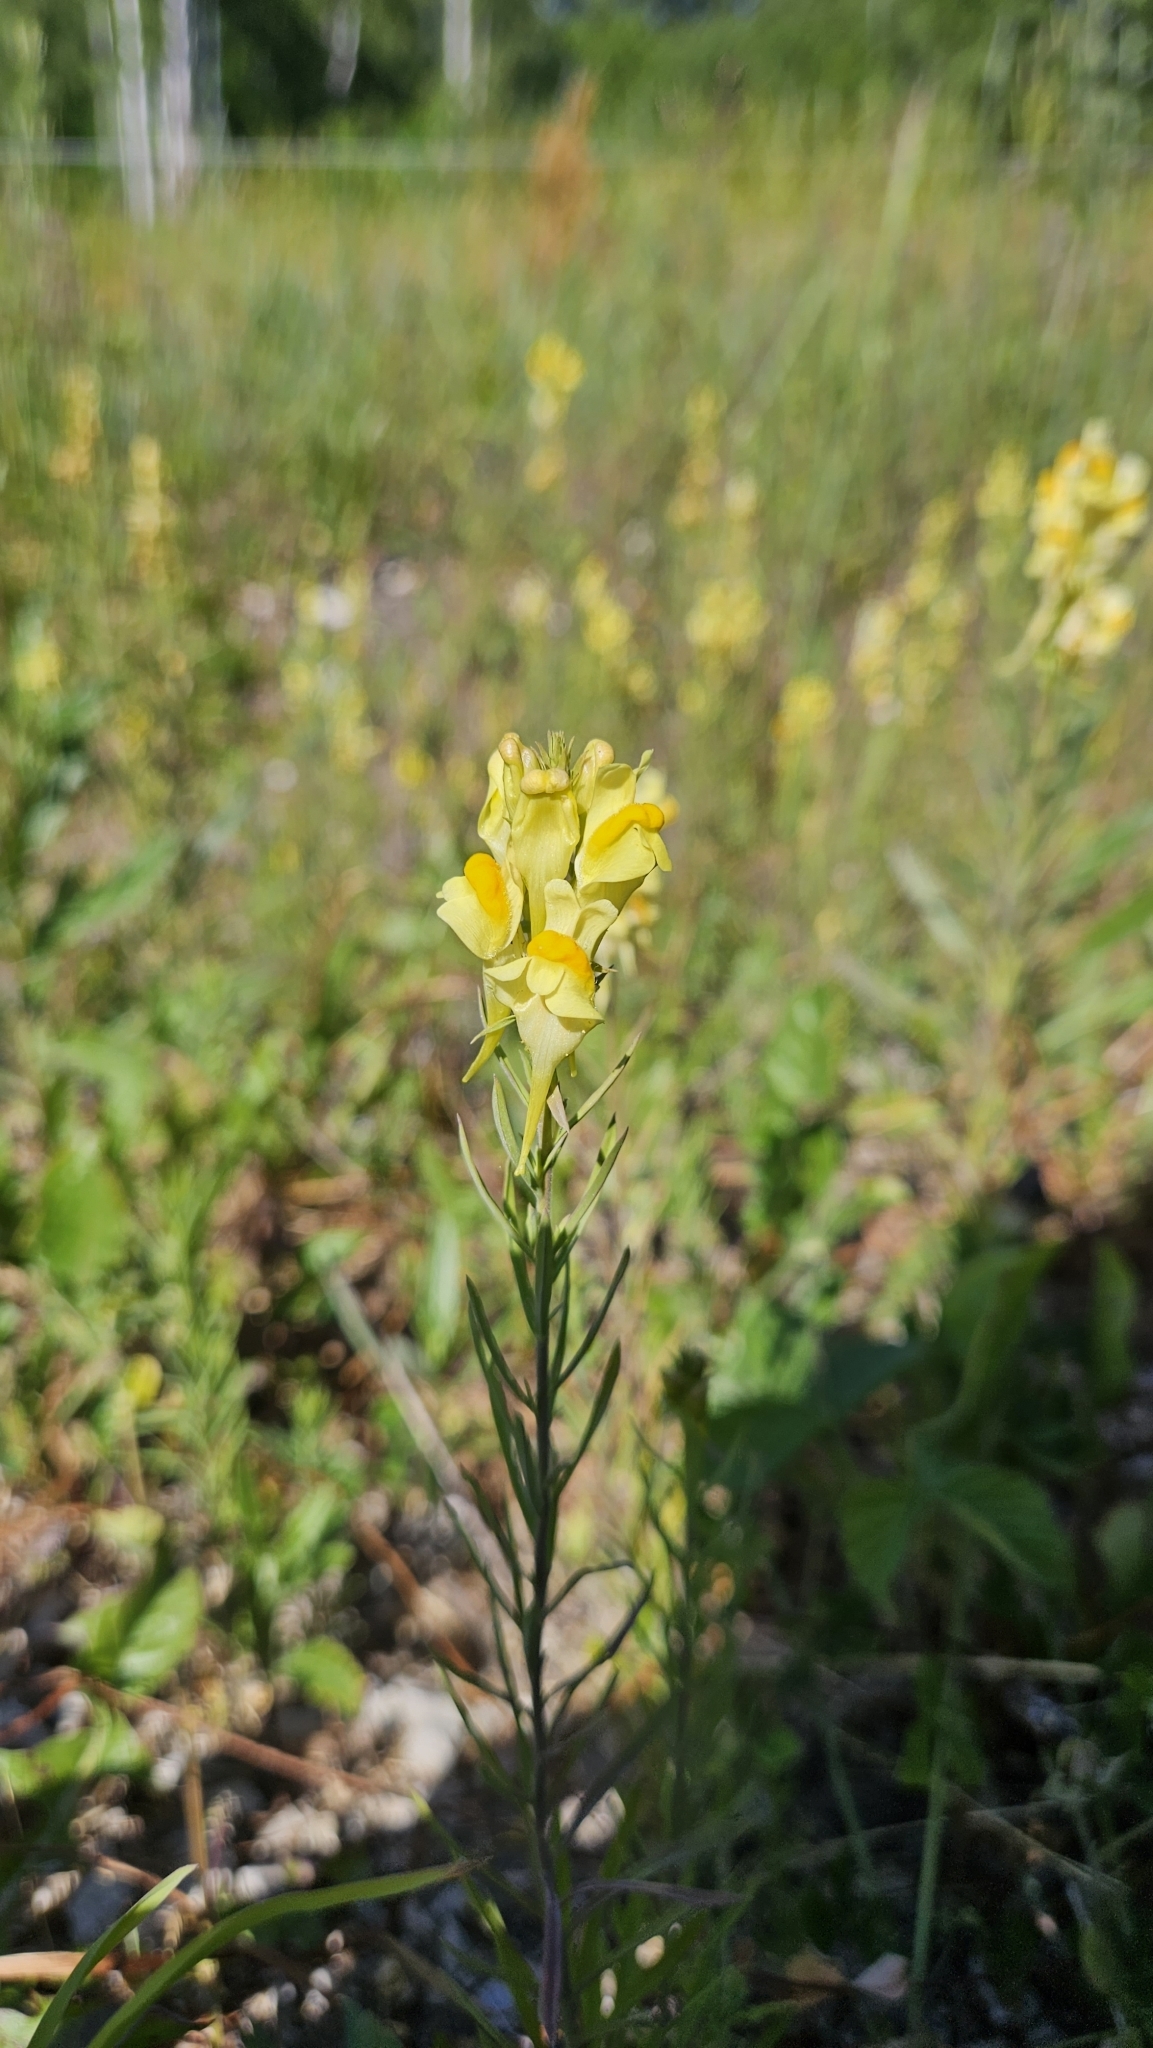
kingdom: Plantae
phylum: Tracheophyta
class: Magnoliopsida
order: Lamiales
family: Plantaginaceae
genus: Linaria
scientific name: Linaria vulgaris
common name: Butter and eggs
